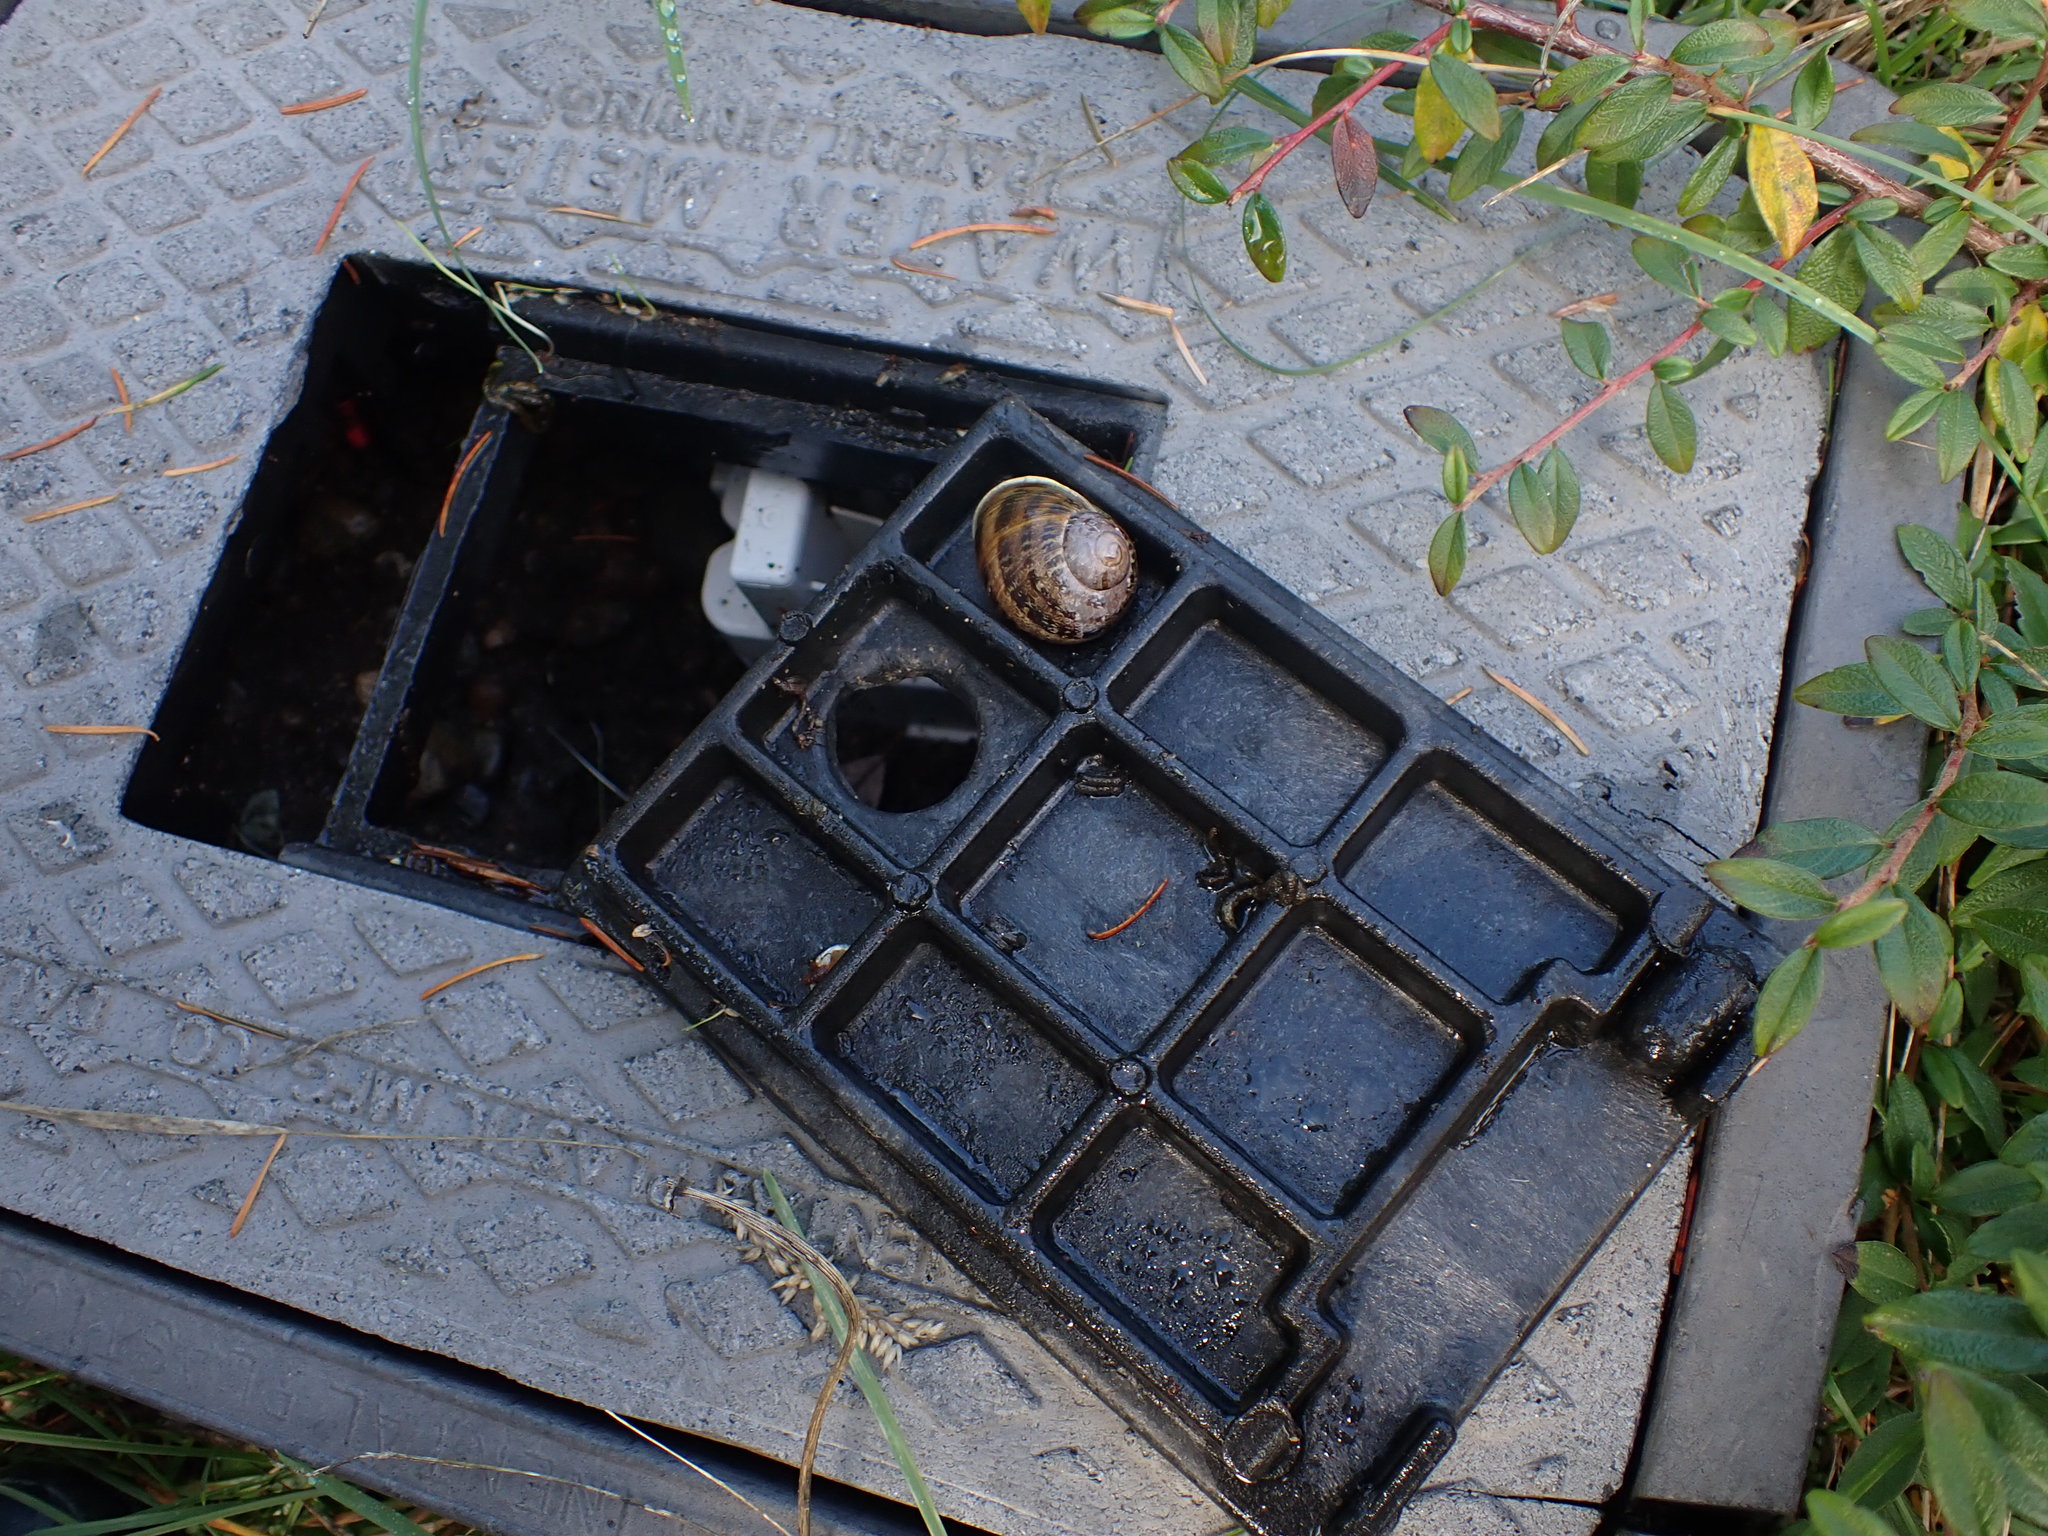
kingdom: Animalia
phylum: Mollusca
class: Gastropoda
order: Stylommatophora
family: Helicidae
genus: Cornu
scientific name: Cornu aspersum
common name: Brown garden snail
